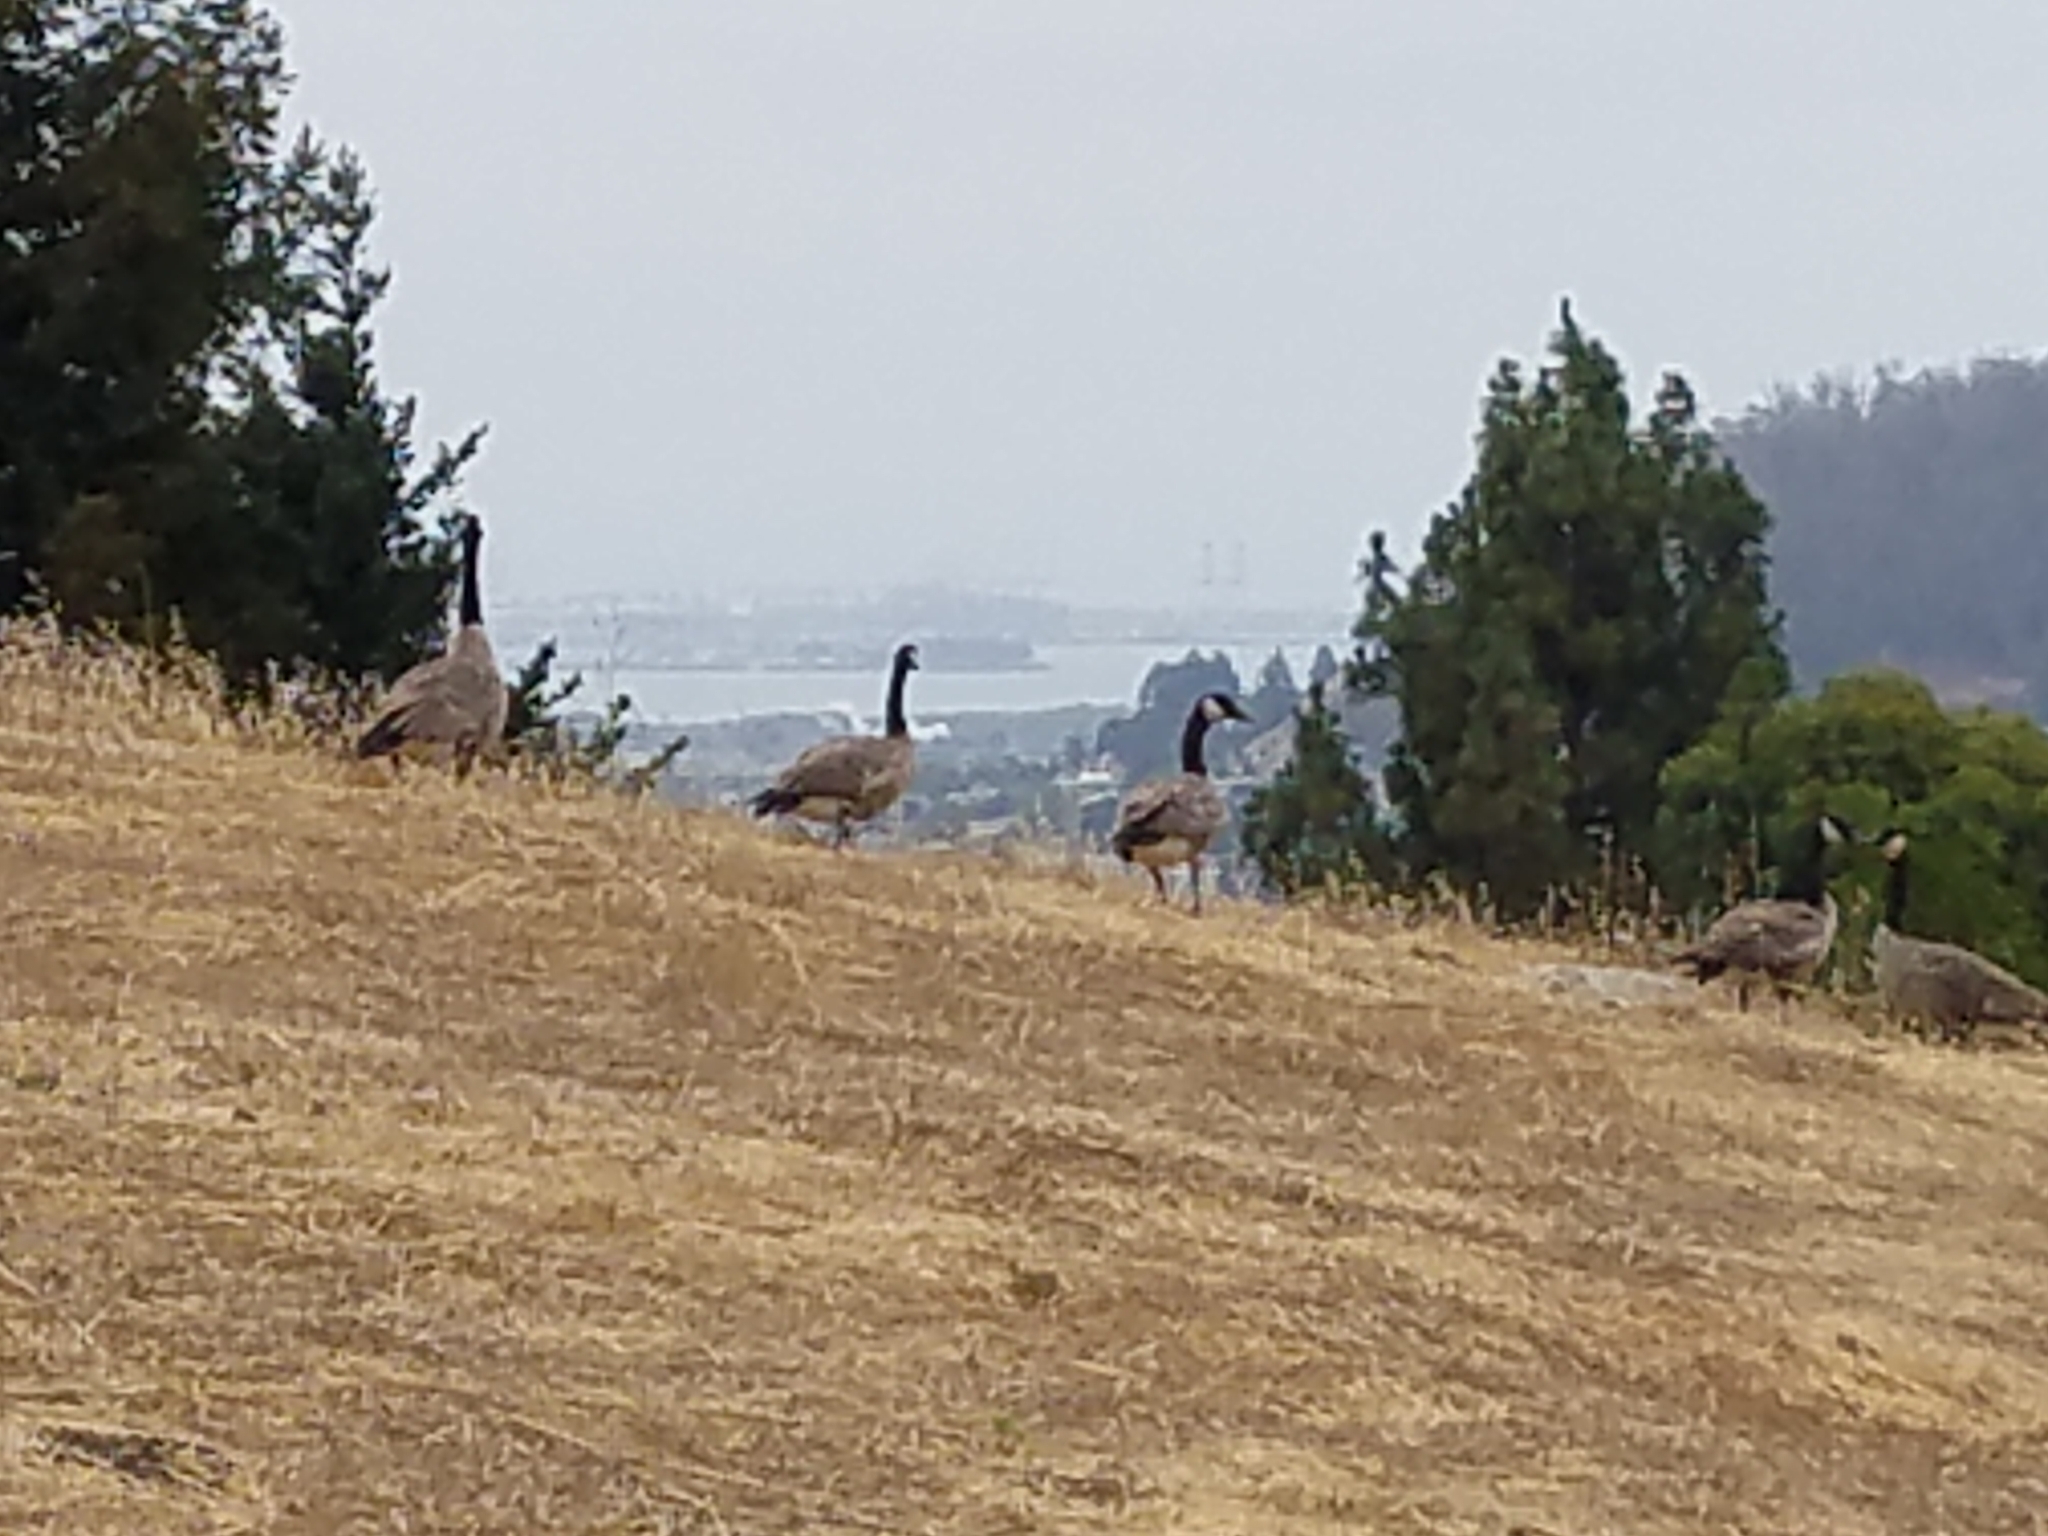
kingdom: Animalia
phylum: Chordata
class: Aves
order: Anseriformes
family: Anatidae
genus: Branta
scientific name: Branta canadensis
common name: Canada goose
